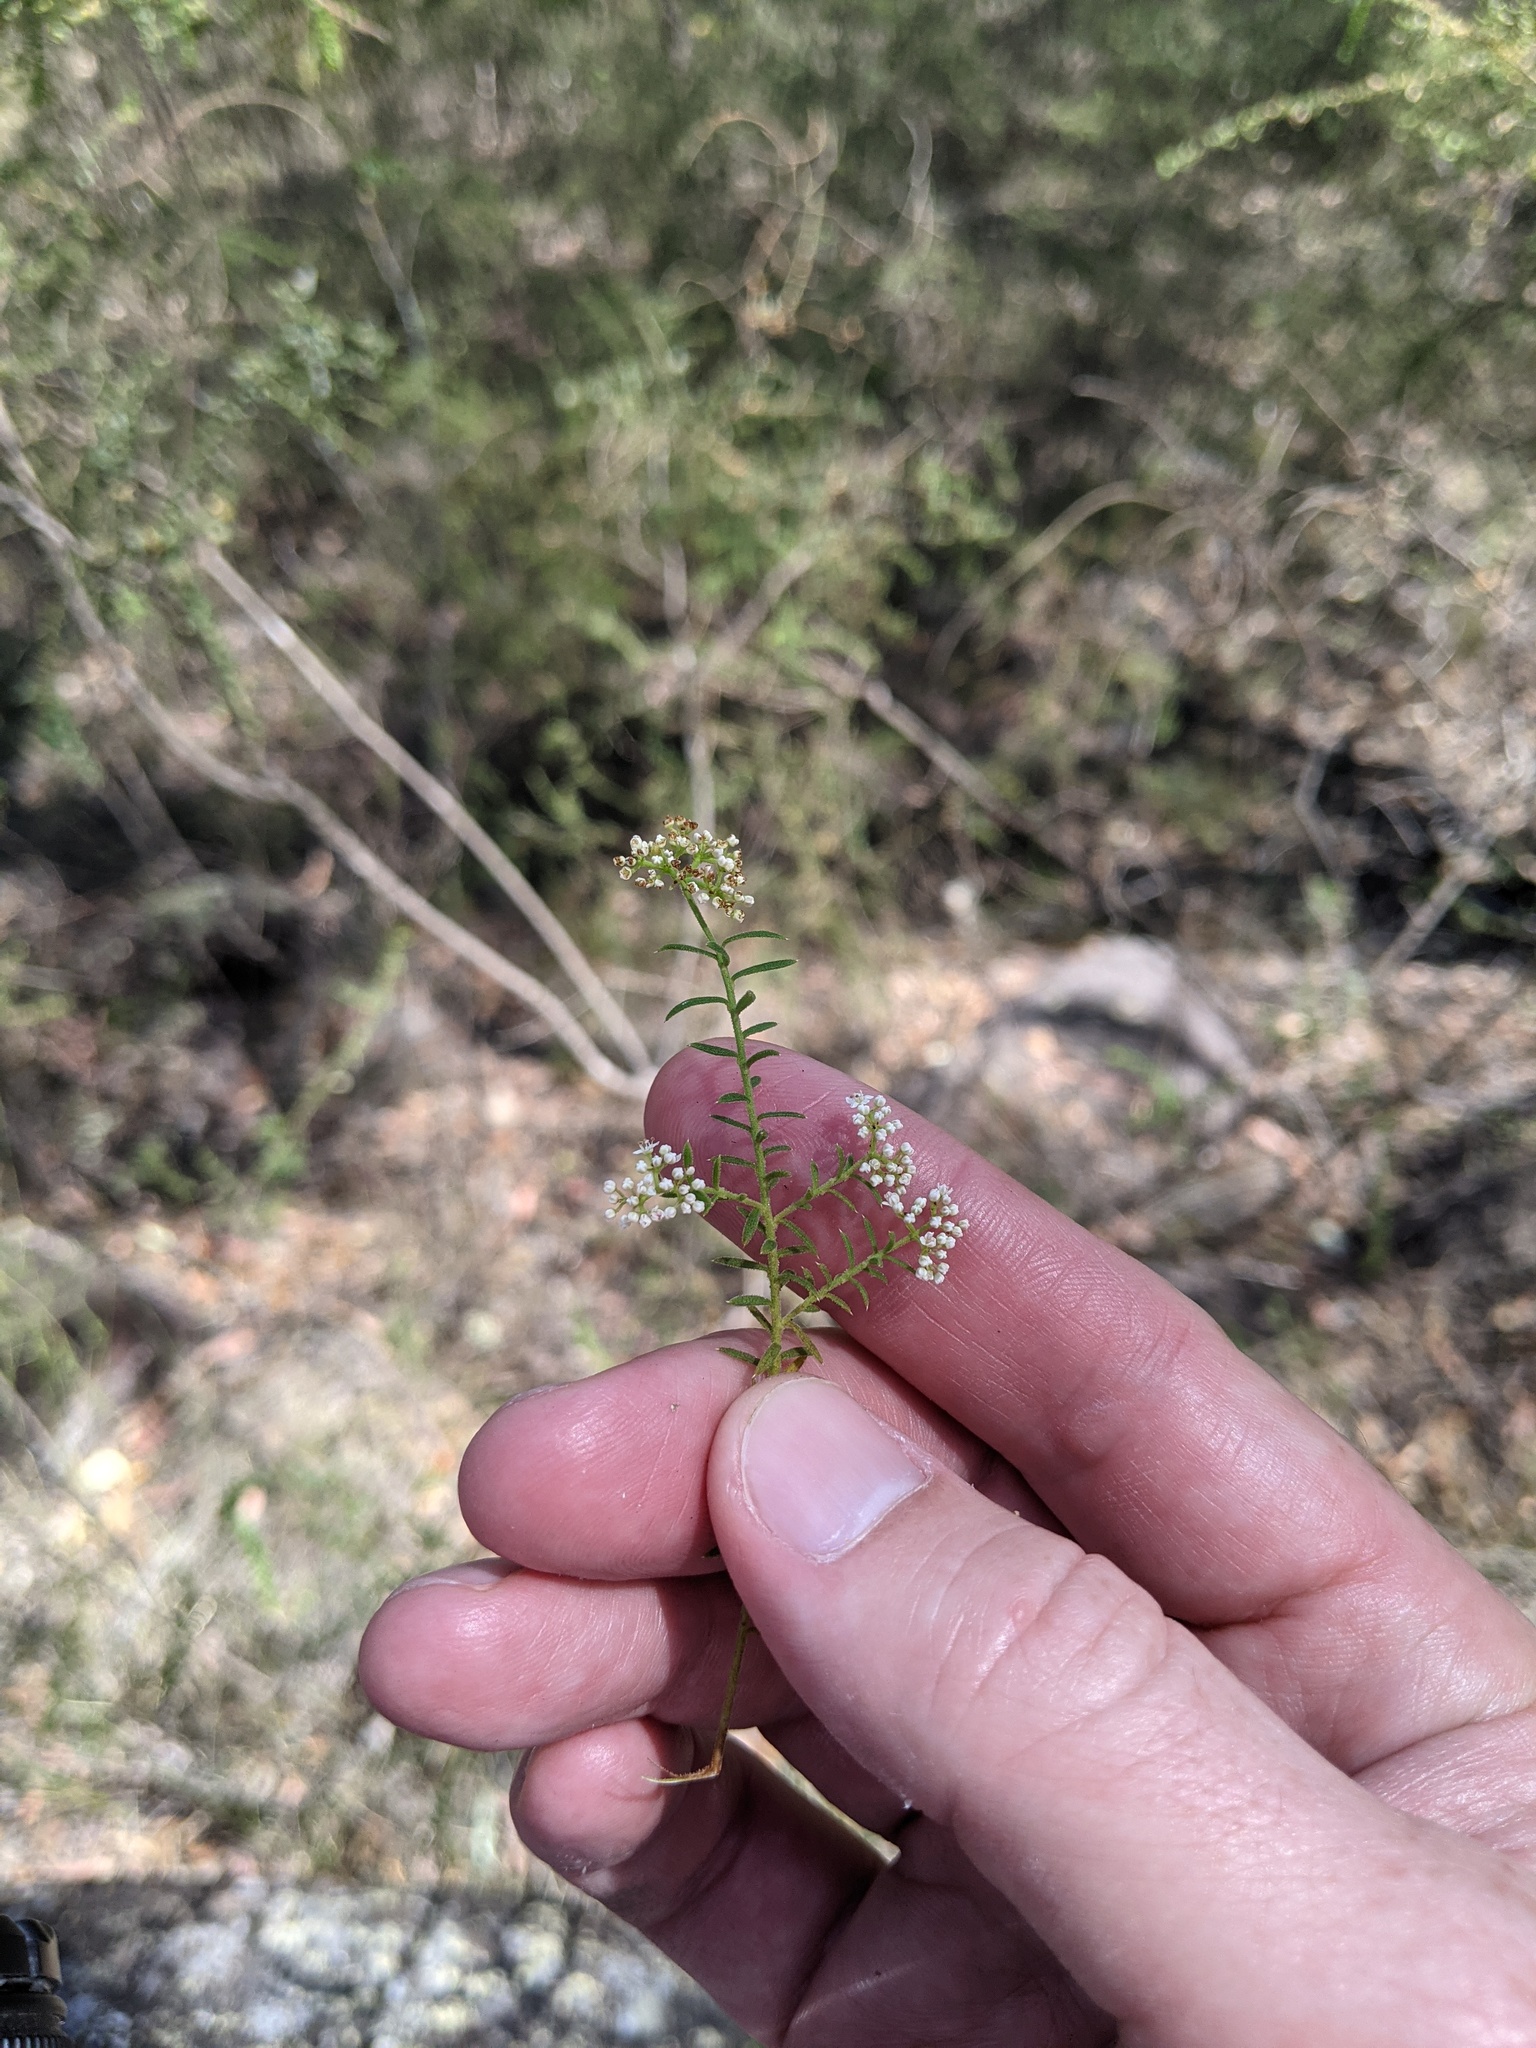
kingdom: Plantae
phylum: Tracheophyta
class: Magnoliopsida
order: Apiales
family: Apiaceae
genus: Platysace
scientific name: Platysace ericoides
